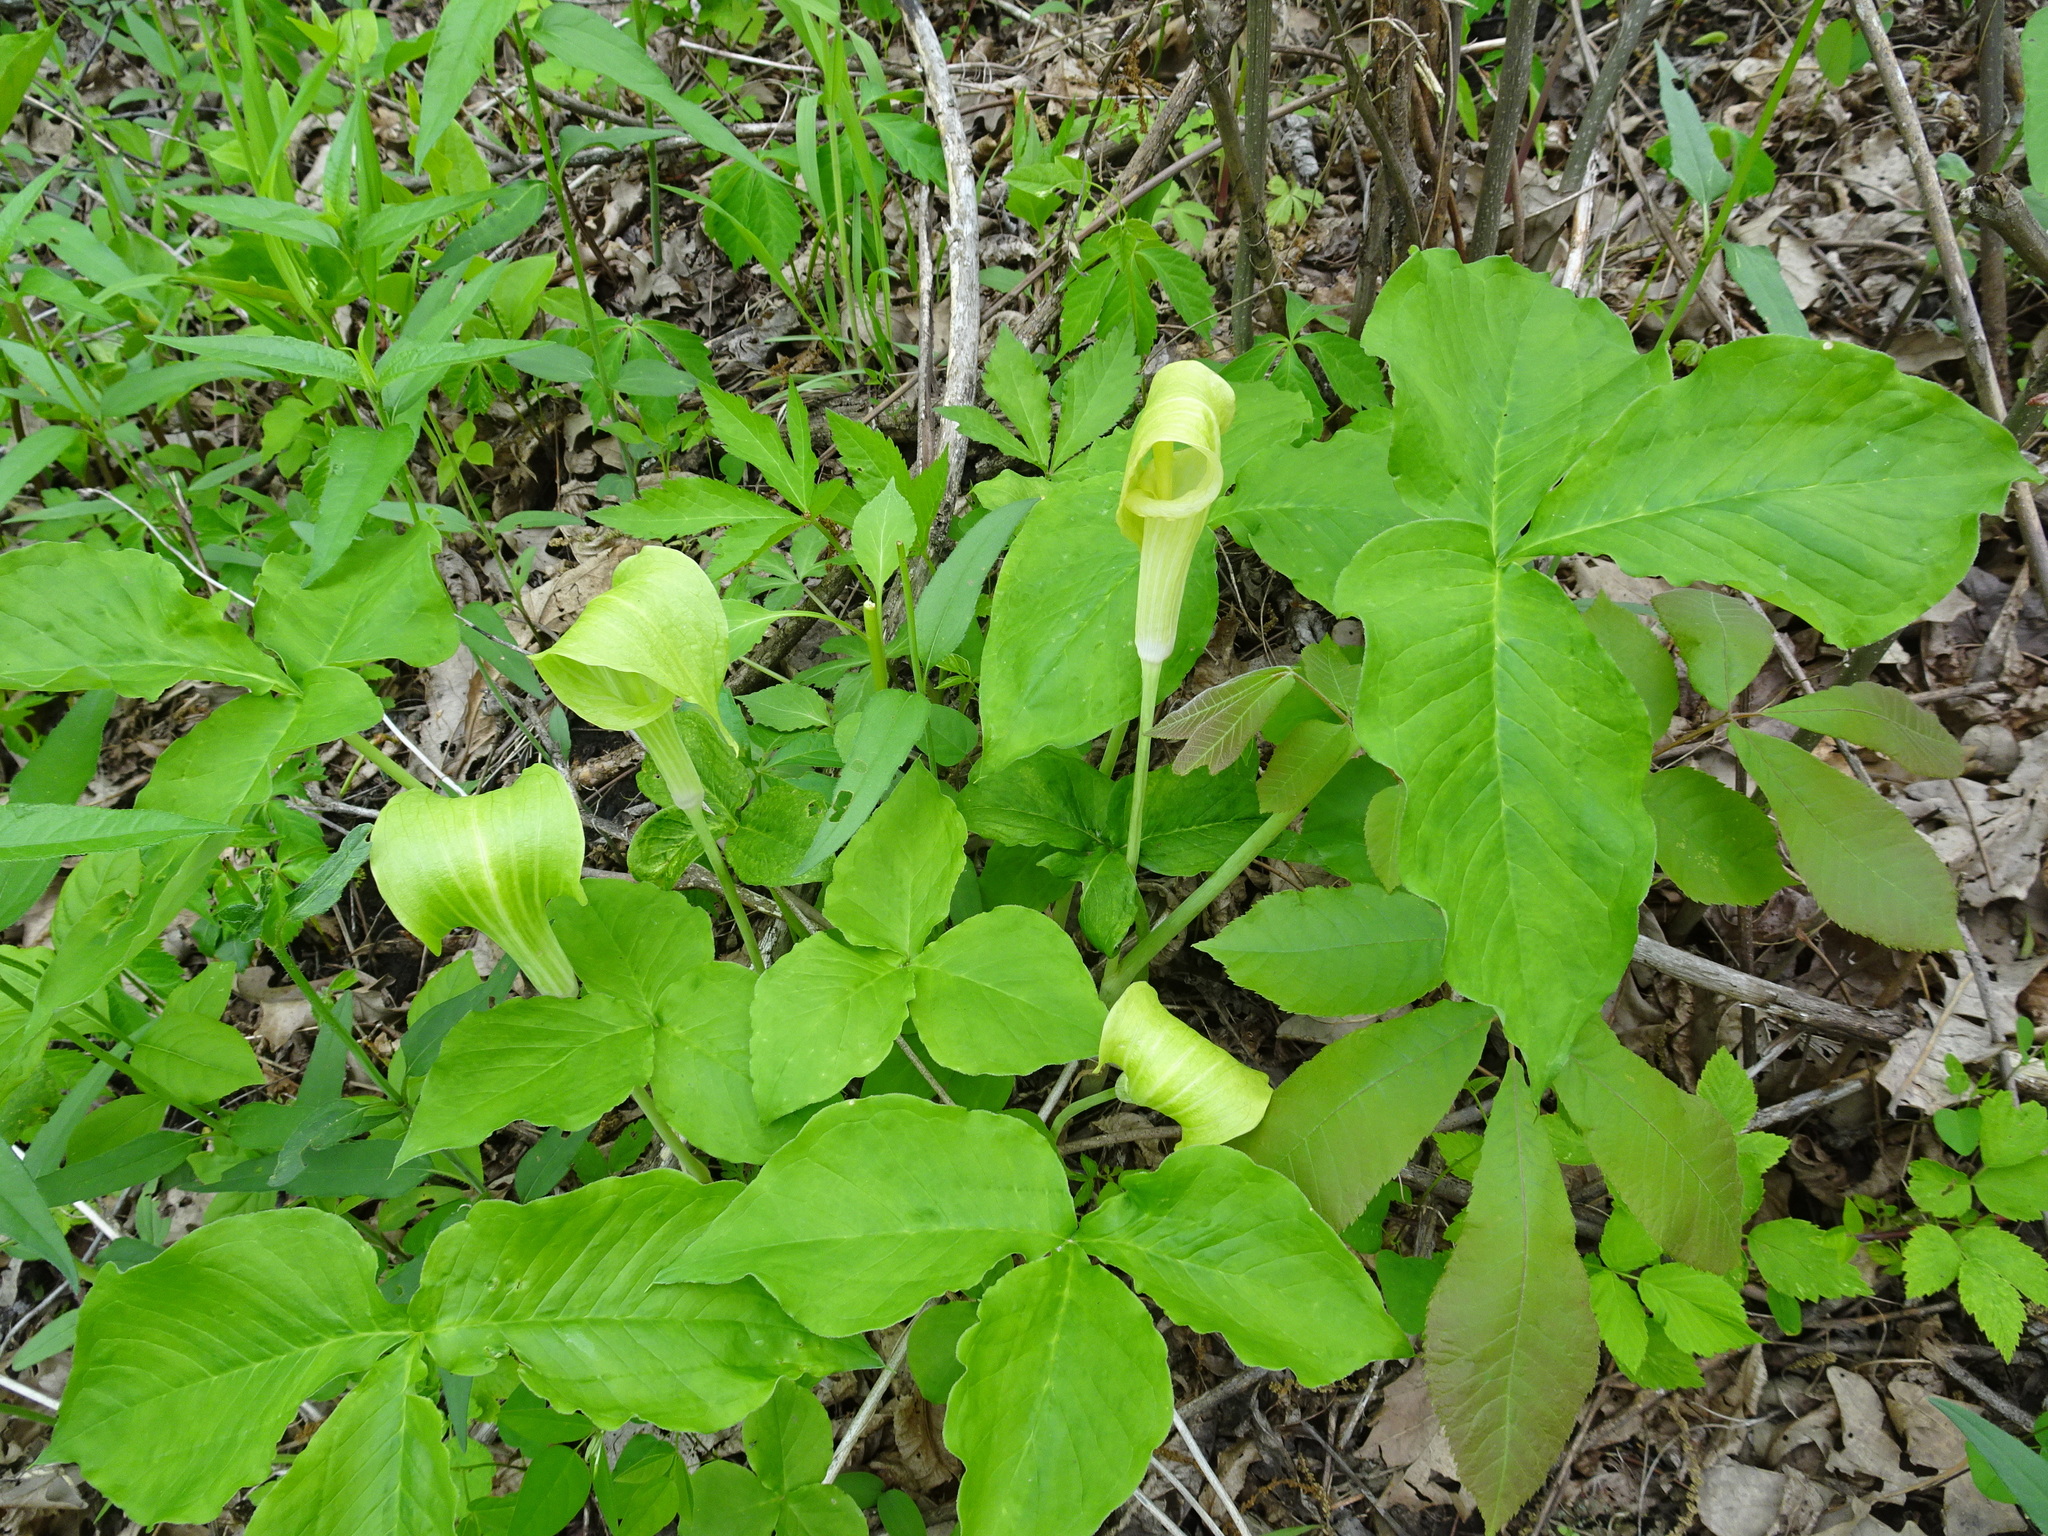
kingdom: Plantae
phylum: Tracheophyta
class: Liliopsida
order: Alismatales
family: Araceae
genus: Arisaema
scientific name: Arisaema triphyllum
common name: Jack-in-the-pulpit
